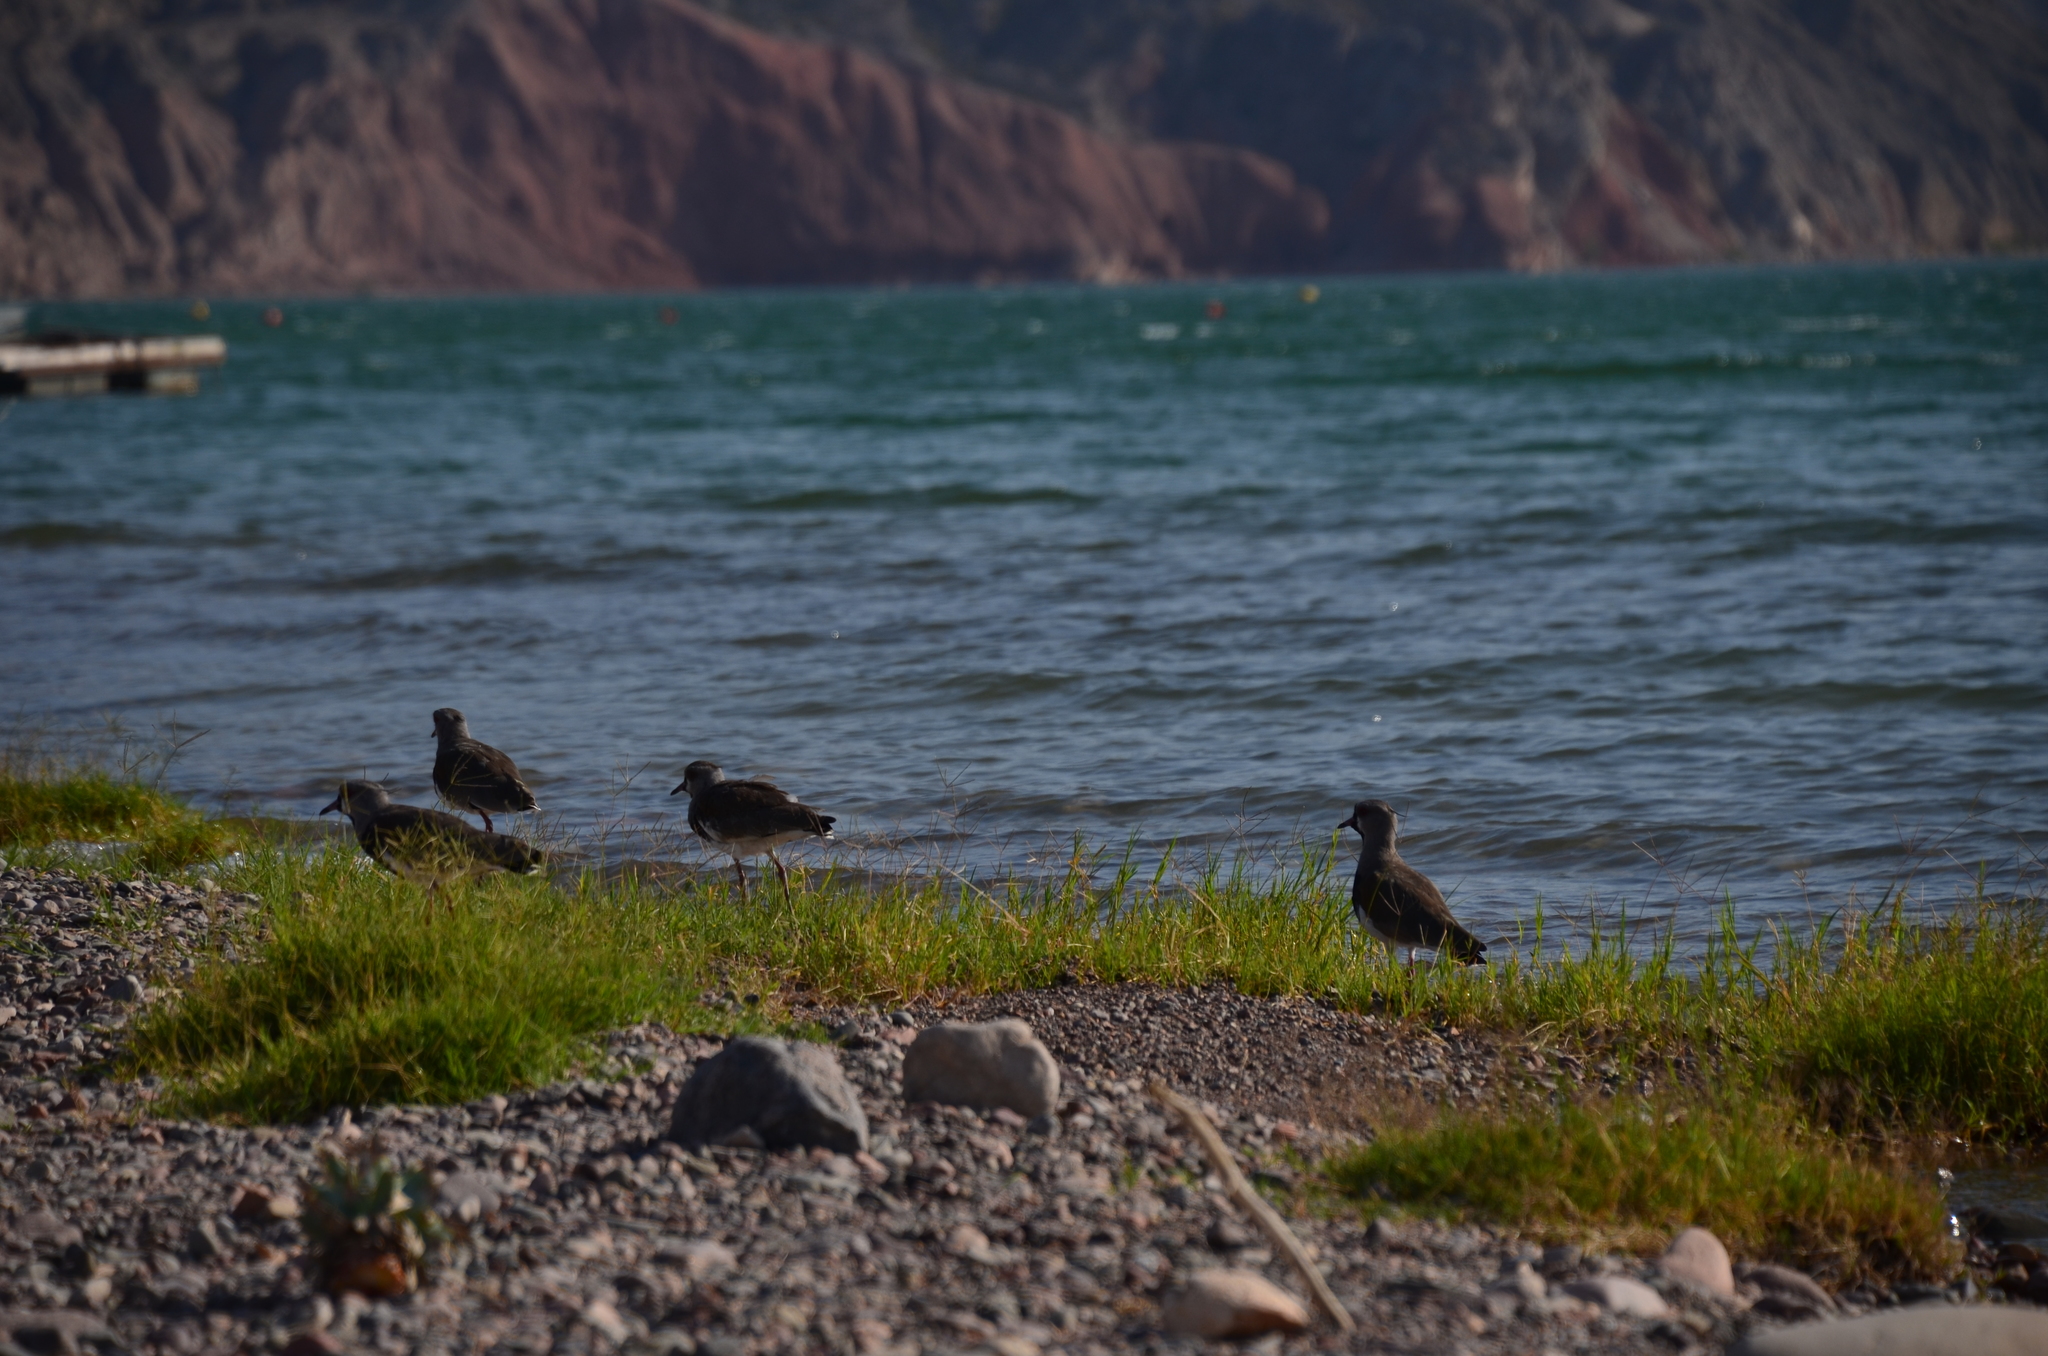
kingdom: Animalia
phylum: Chordata
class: Aves
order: Charadriiformes
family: Charadriidae
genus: Vanellus
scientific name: Vanellus chilensis
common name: Southern lapwing
